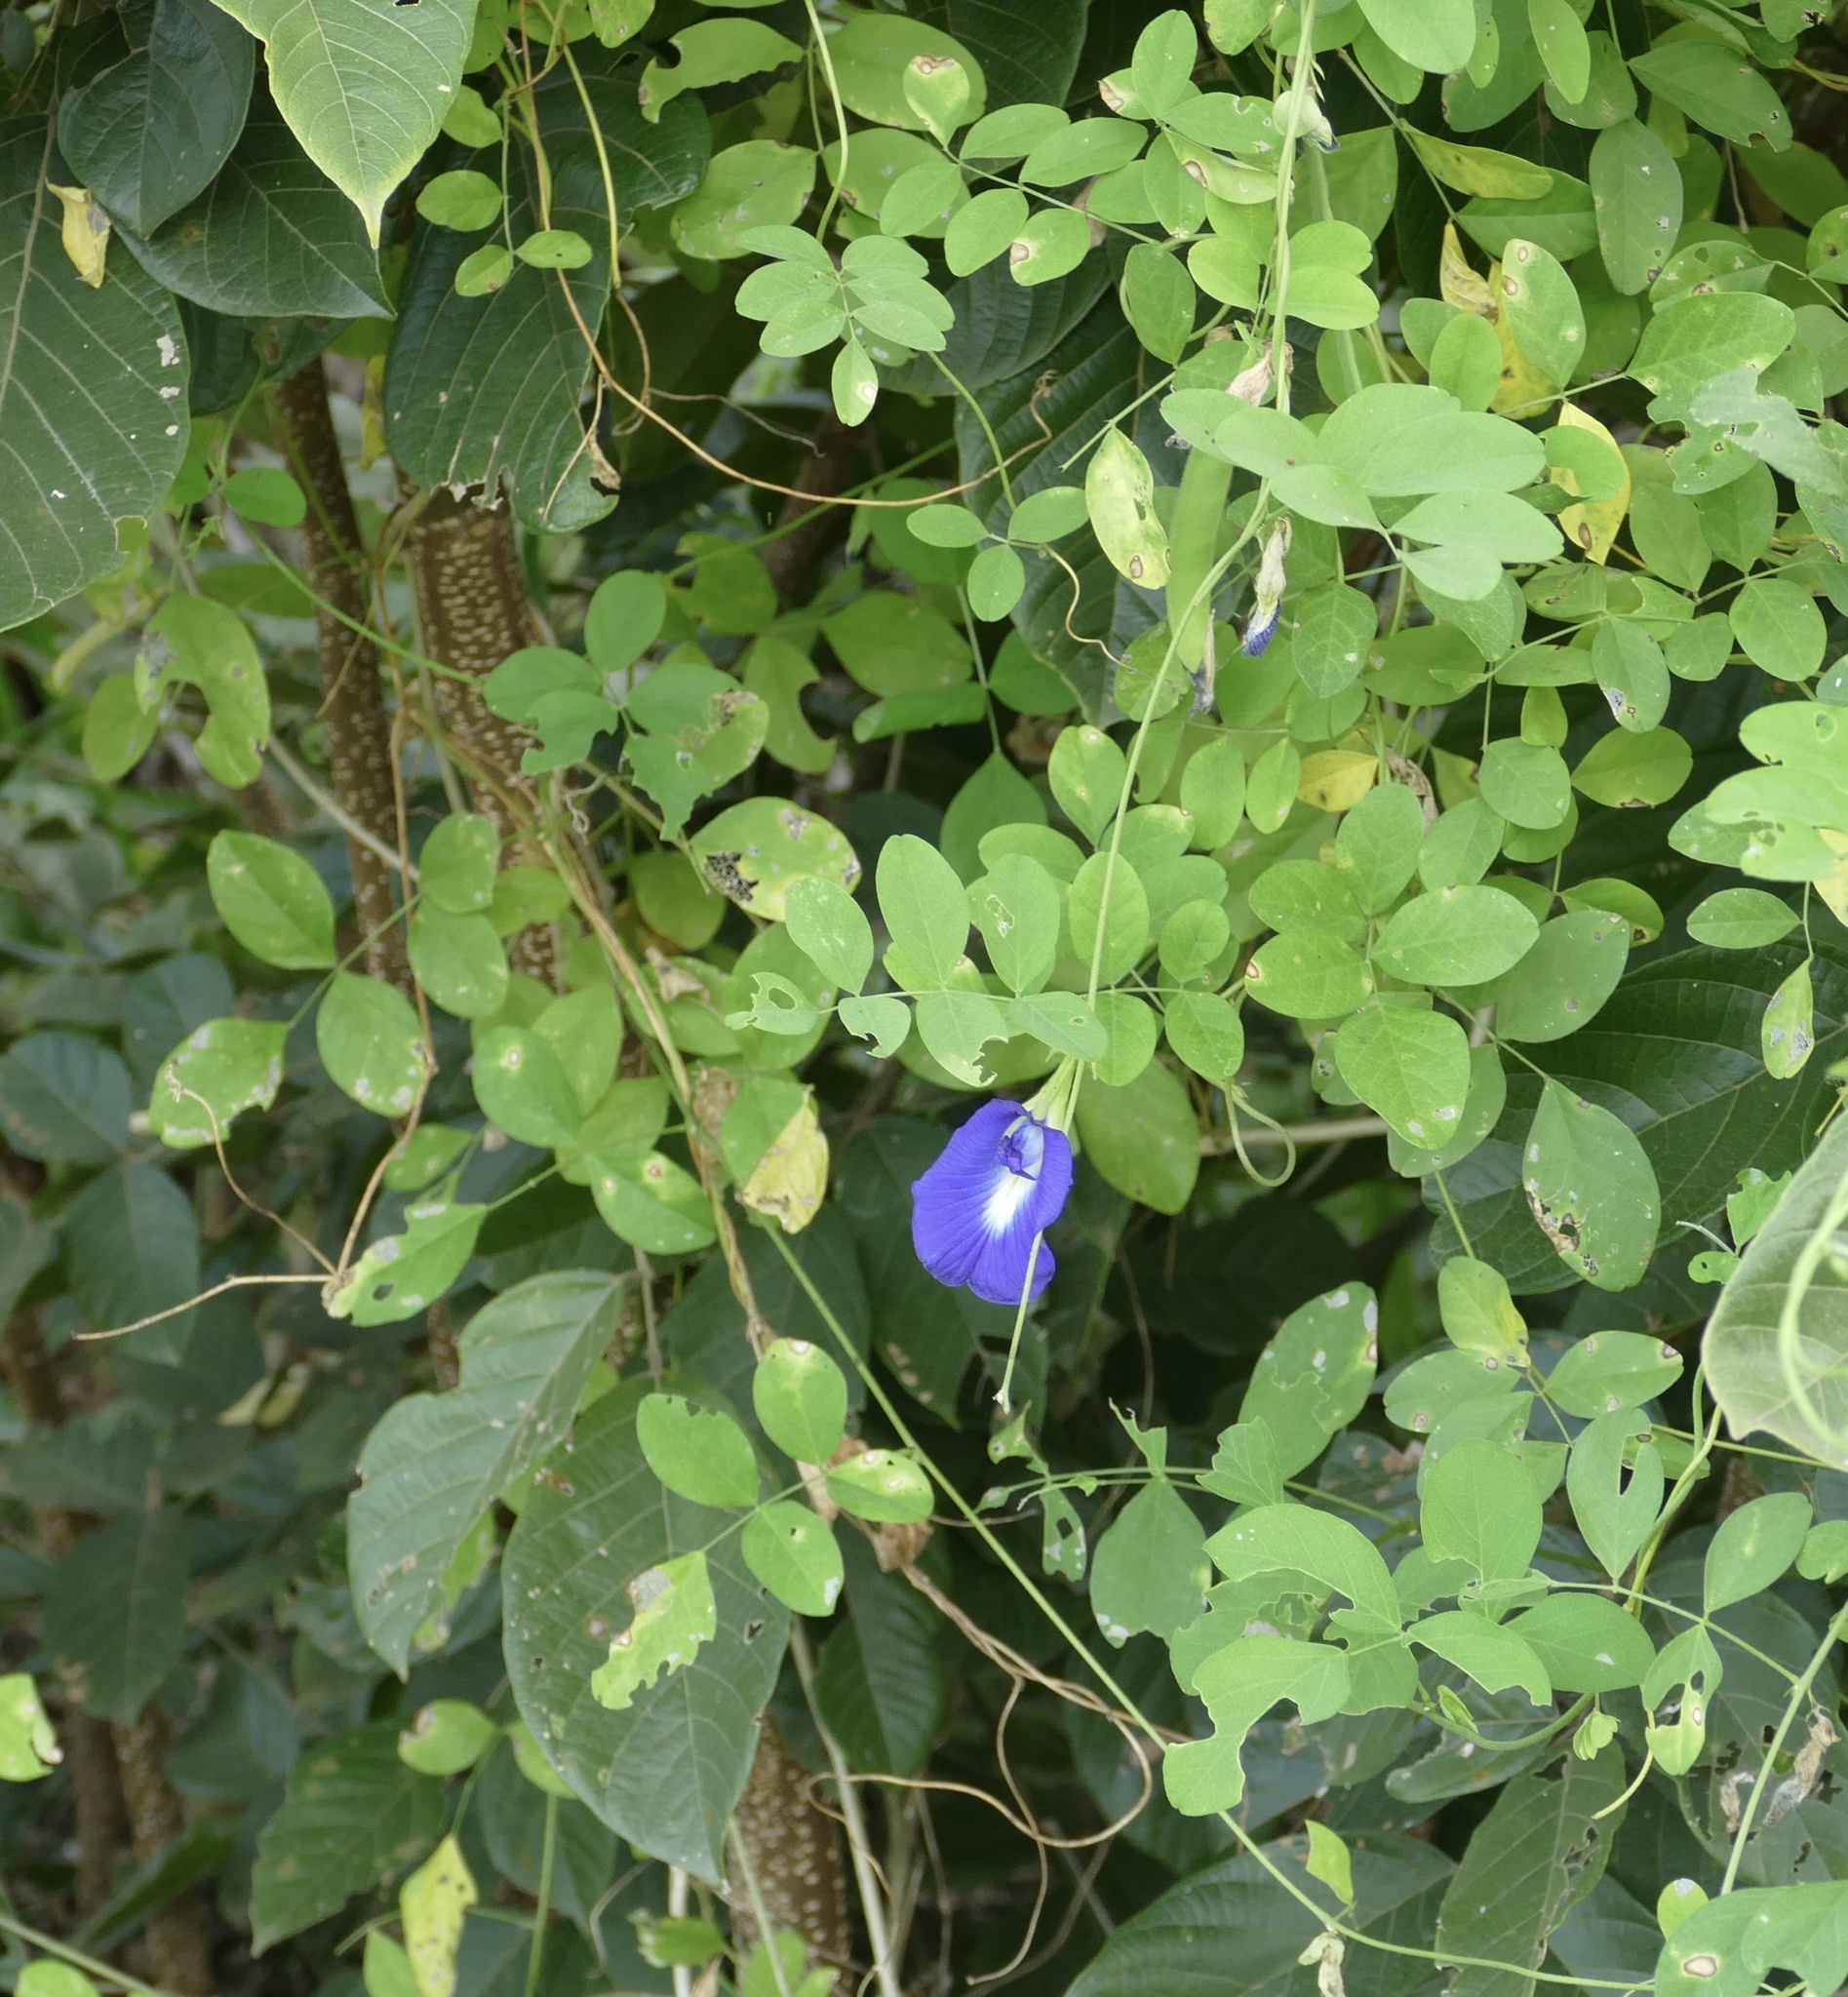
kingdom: Plantae
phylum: Tracheophyta
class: Magnoliopsida
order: Fabales
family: Fabaceae
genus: Clitoria
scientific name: Clitoria ternatea
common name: Asian pigeonwings
